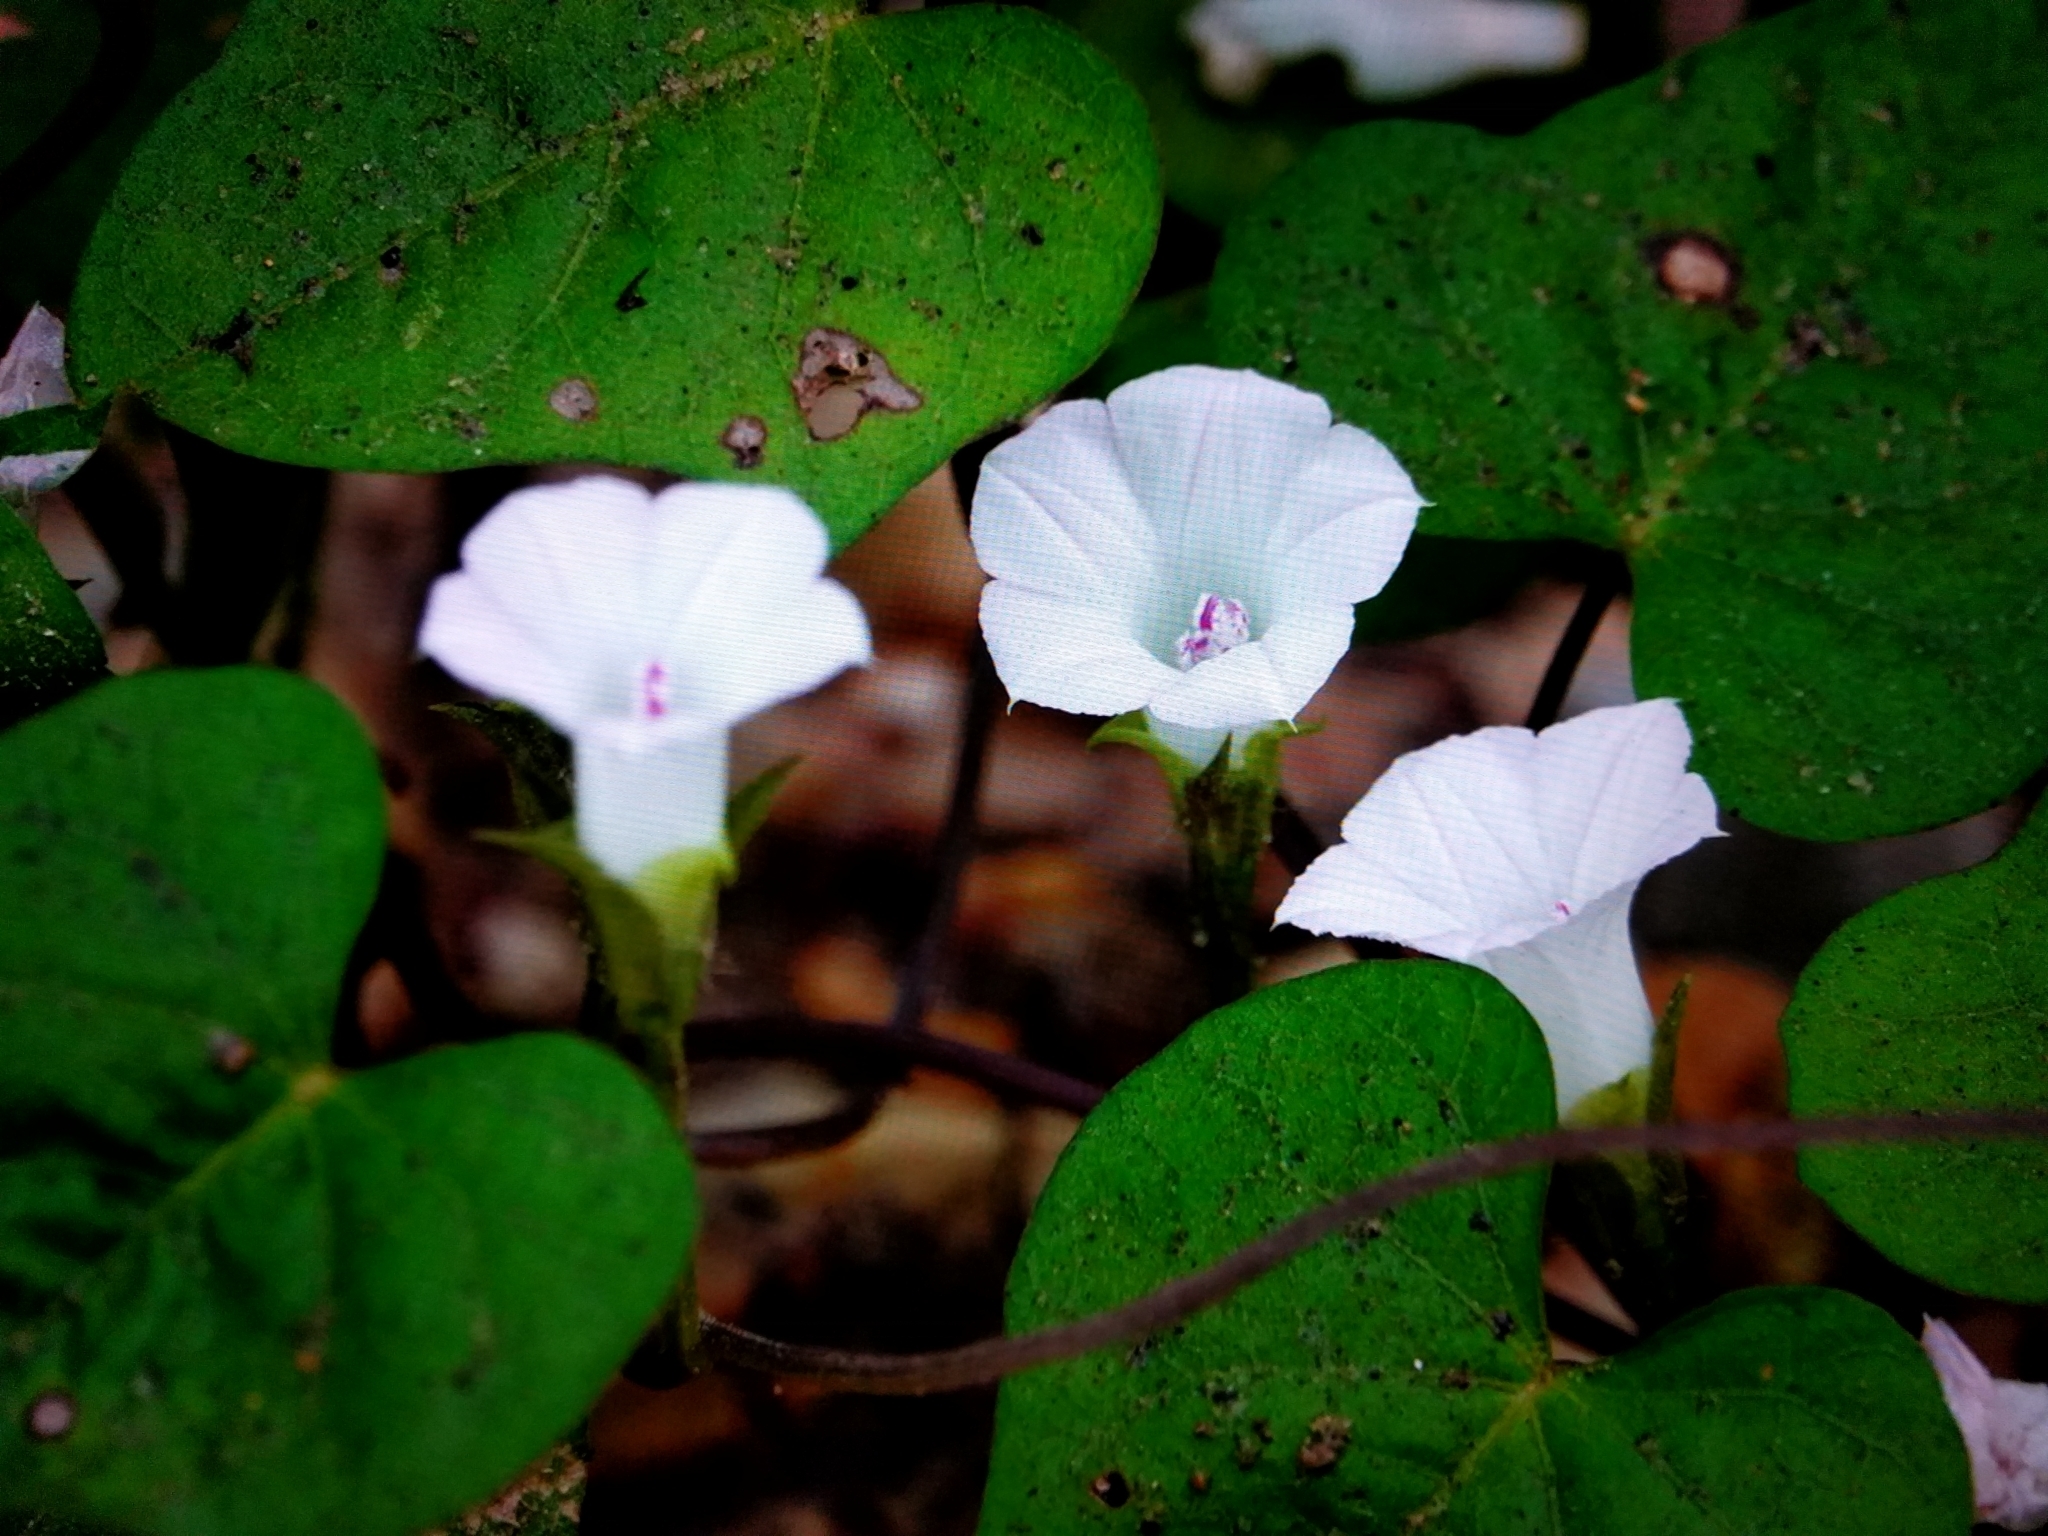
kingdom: Plantae
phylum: Tracheophyta
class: Magnoliopsida
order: Solanales
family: Convolvulaceae
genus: Ipomoea
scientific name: Ipomoea lacunosa
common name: White morning-glory
